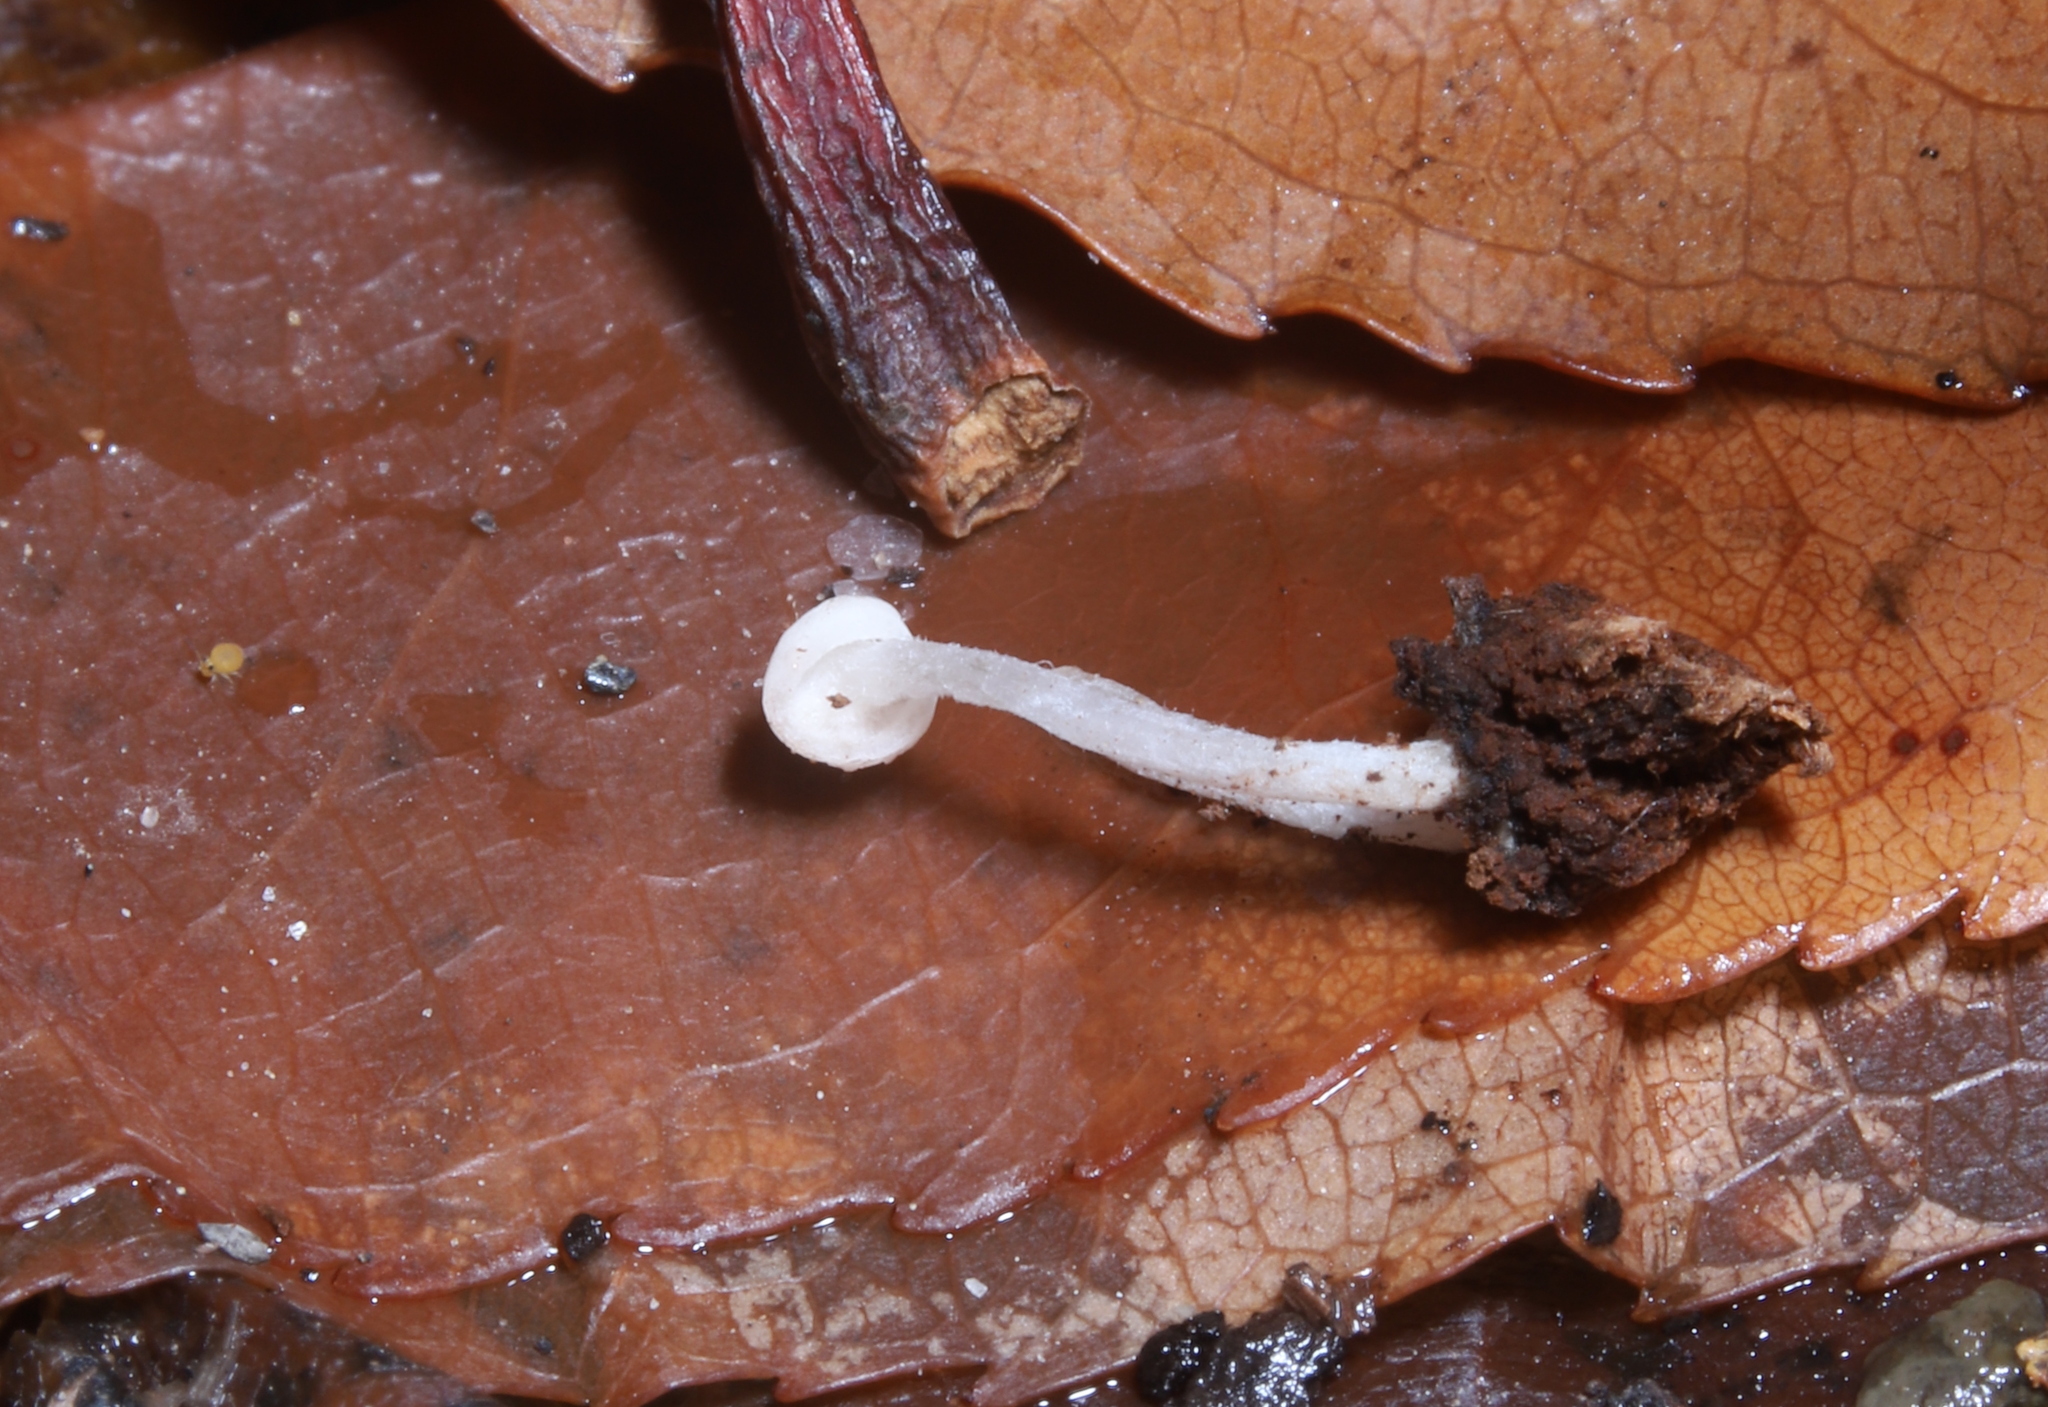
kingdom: Fungi
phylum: Ascomycota
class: Leotiomycetes
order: Helotiales
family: Tricladiaceae
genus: Cudoniella
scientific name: Cudoniella acicularis
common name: Oak pin
